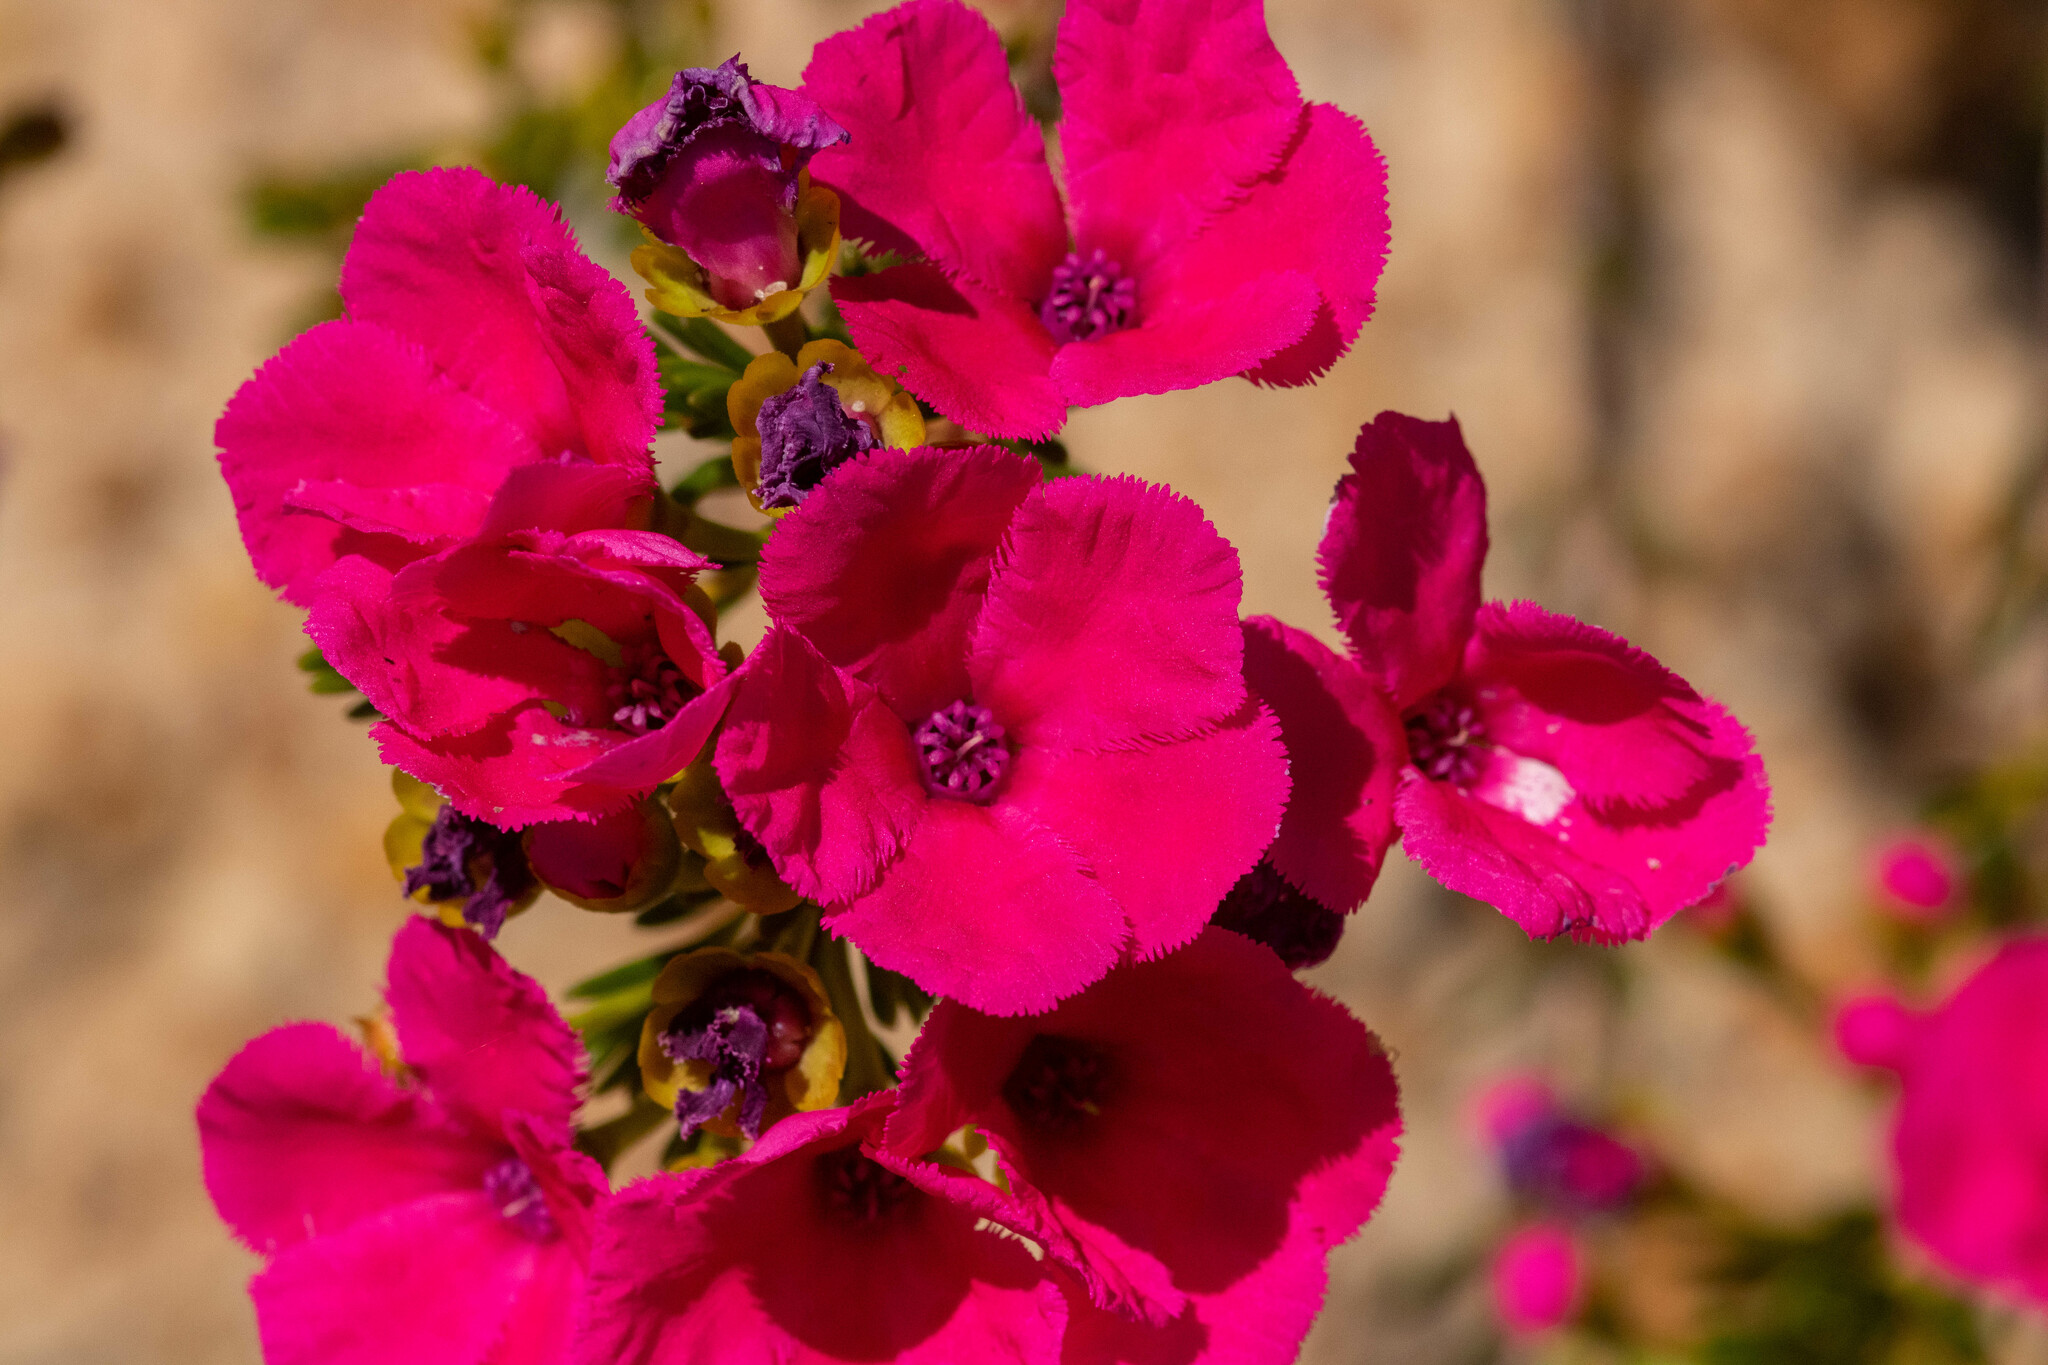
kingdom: Plantae
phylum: Tracheophyta
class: Magnoliopsida
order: Myrtales
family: Myrtaceae
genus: Pileanthus
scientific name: Pileanthus filifolius
